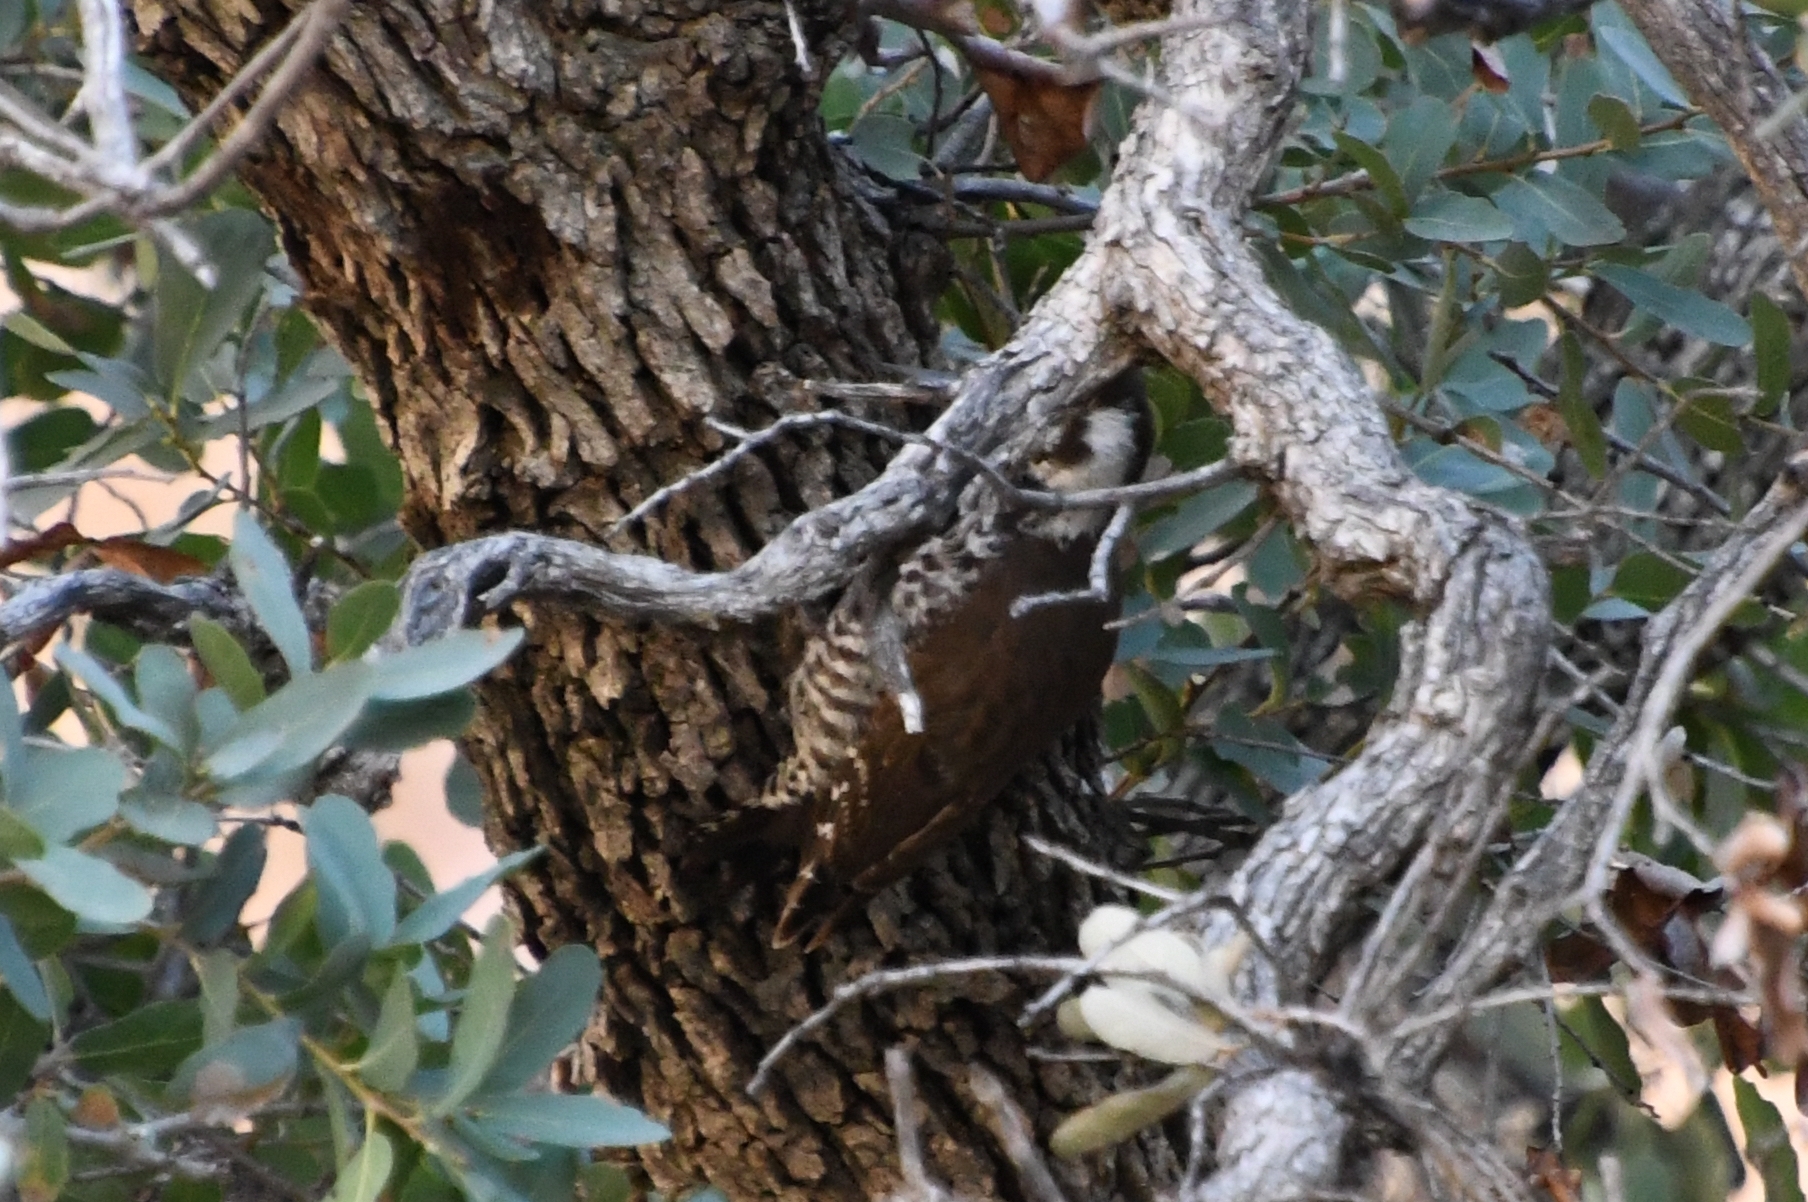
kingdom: Animalia
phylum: Chordata
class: Aves
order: Piciformes
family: Picidae
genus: Leuconotopicus
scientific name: Leuconotopicus arizonae
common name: Arizona woodpecker
